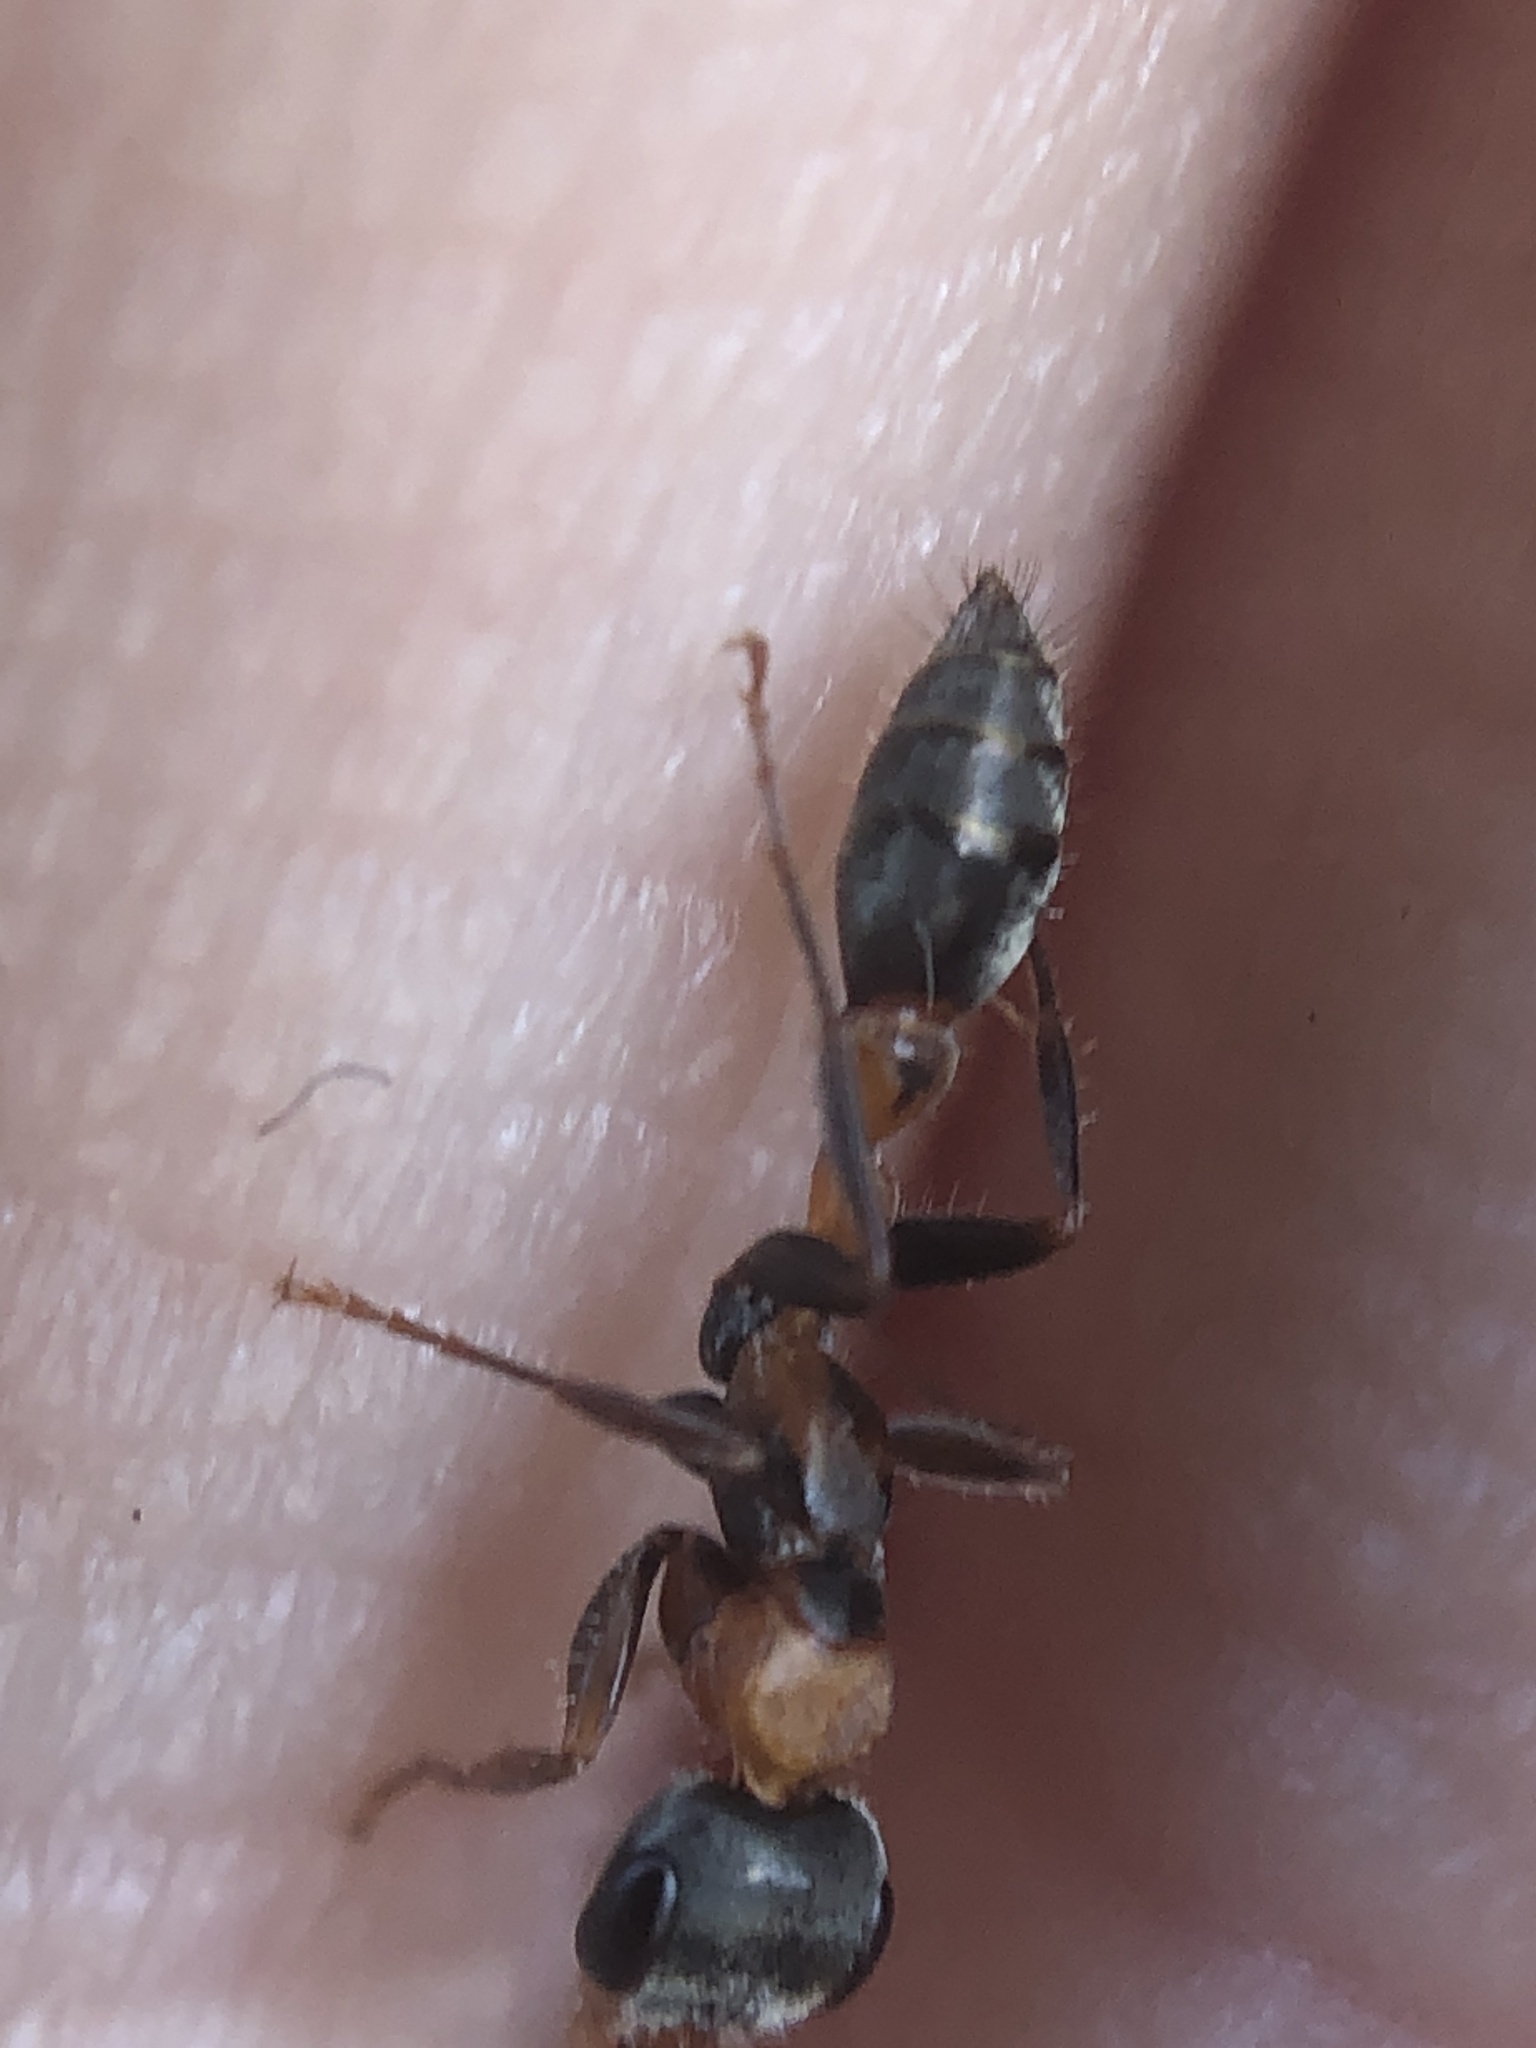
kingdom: Animalia
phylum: Arthropoda
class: Insecta
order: Hymenoptera
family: Formicidae
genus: Pseudomyrmex
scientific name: Pseudomyrmex gracilis
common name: Graceful twig ant
